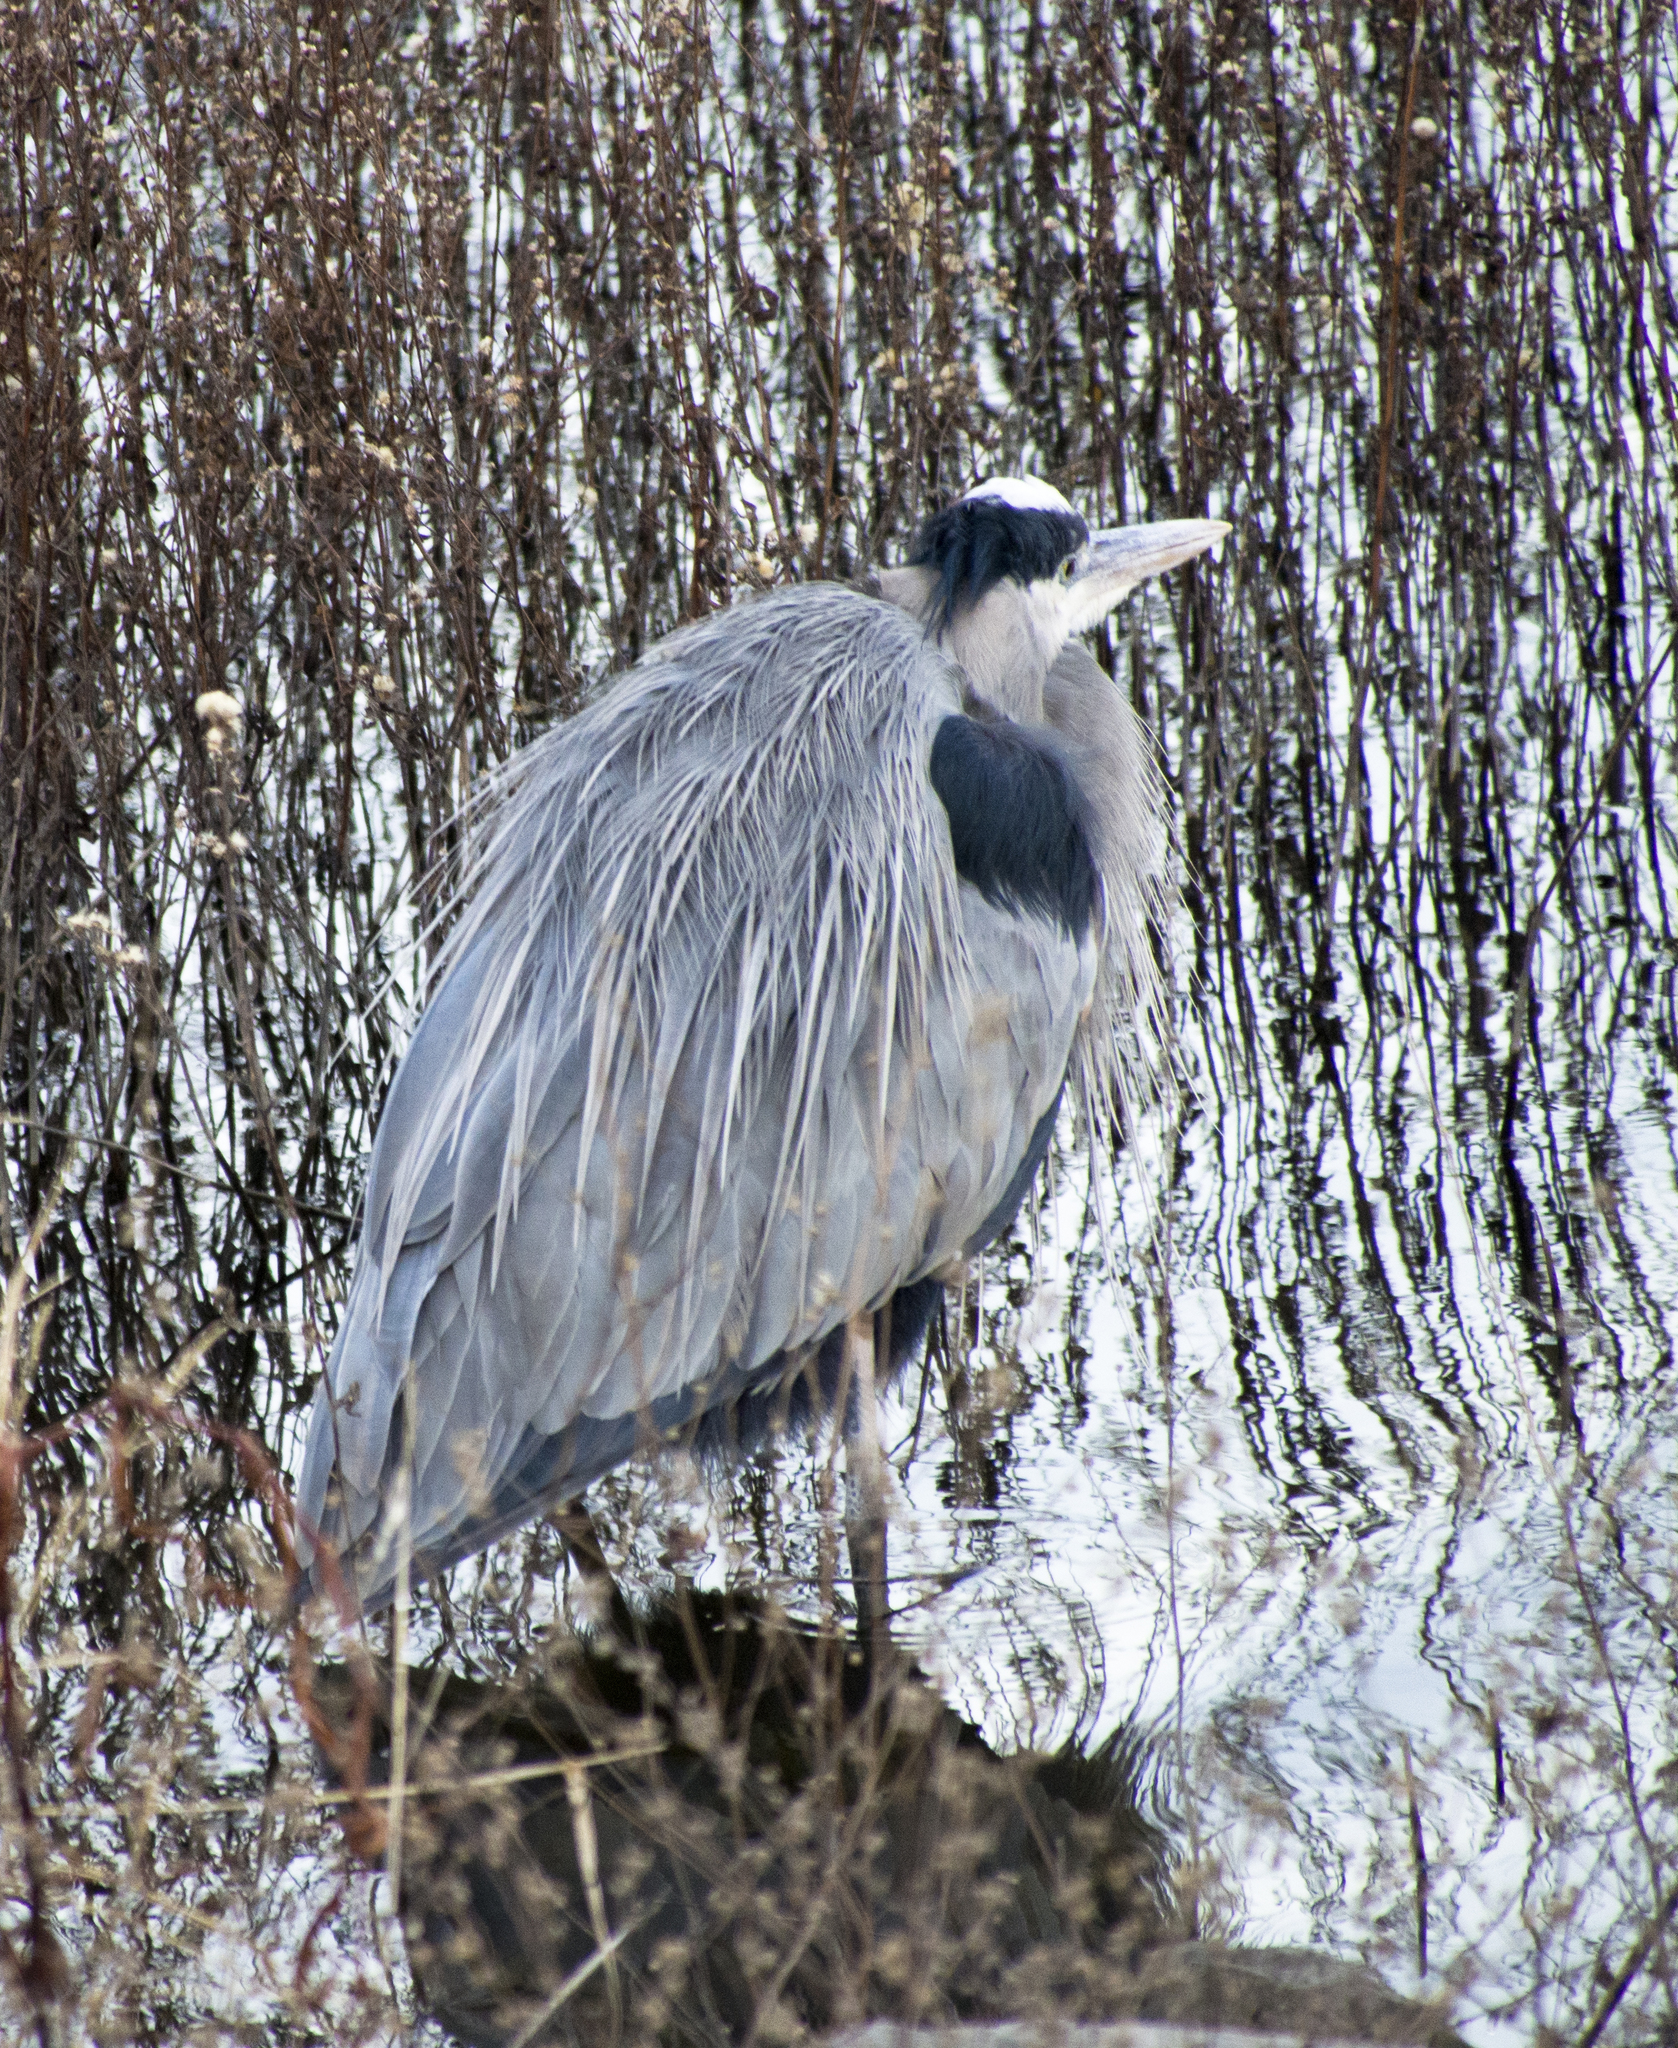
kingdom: Animalia
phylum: Chordata
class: Aves
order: Pelecaniformes
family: Ardeidae
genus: Ardea
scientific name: Ardea herodias
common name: Great blue heron
